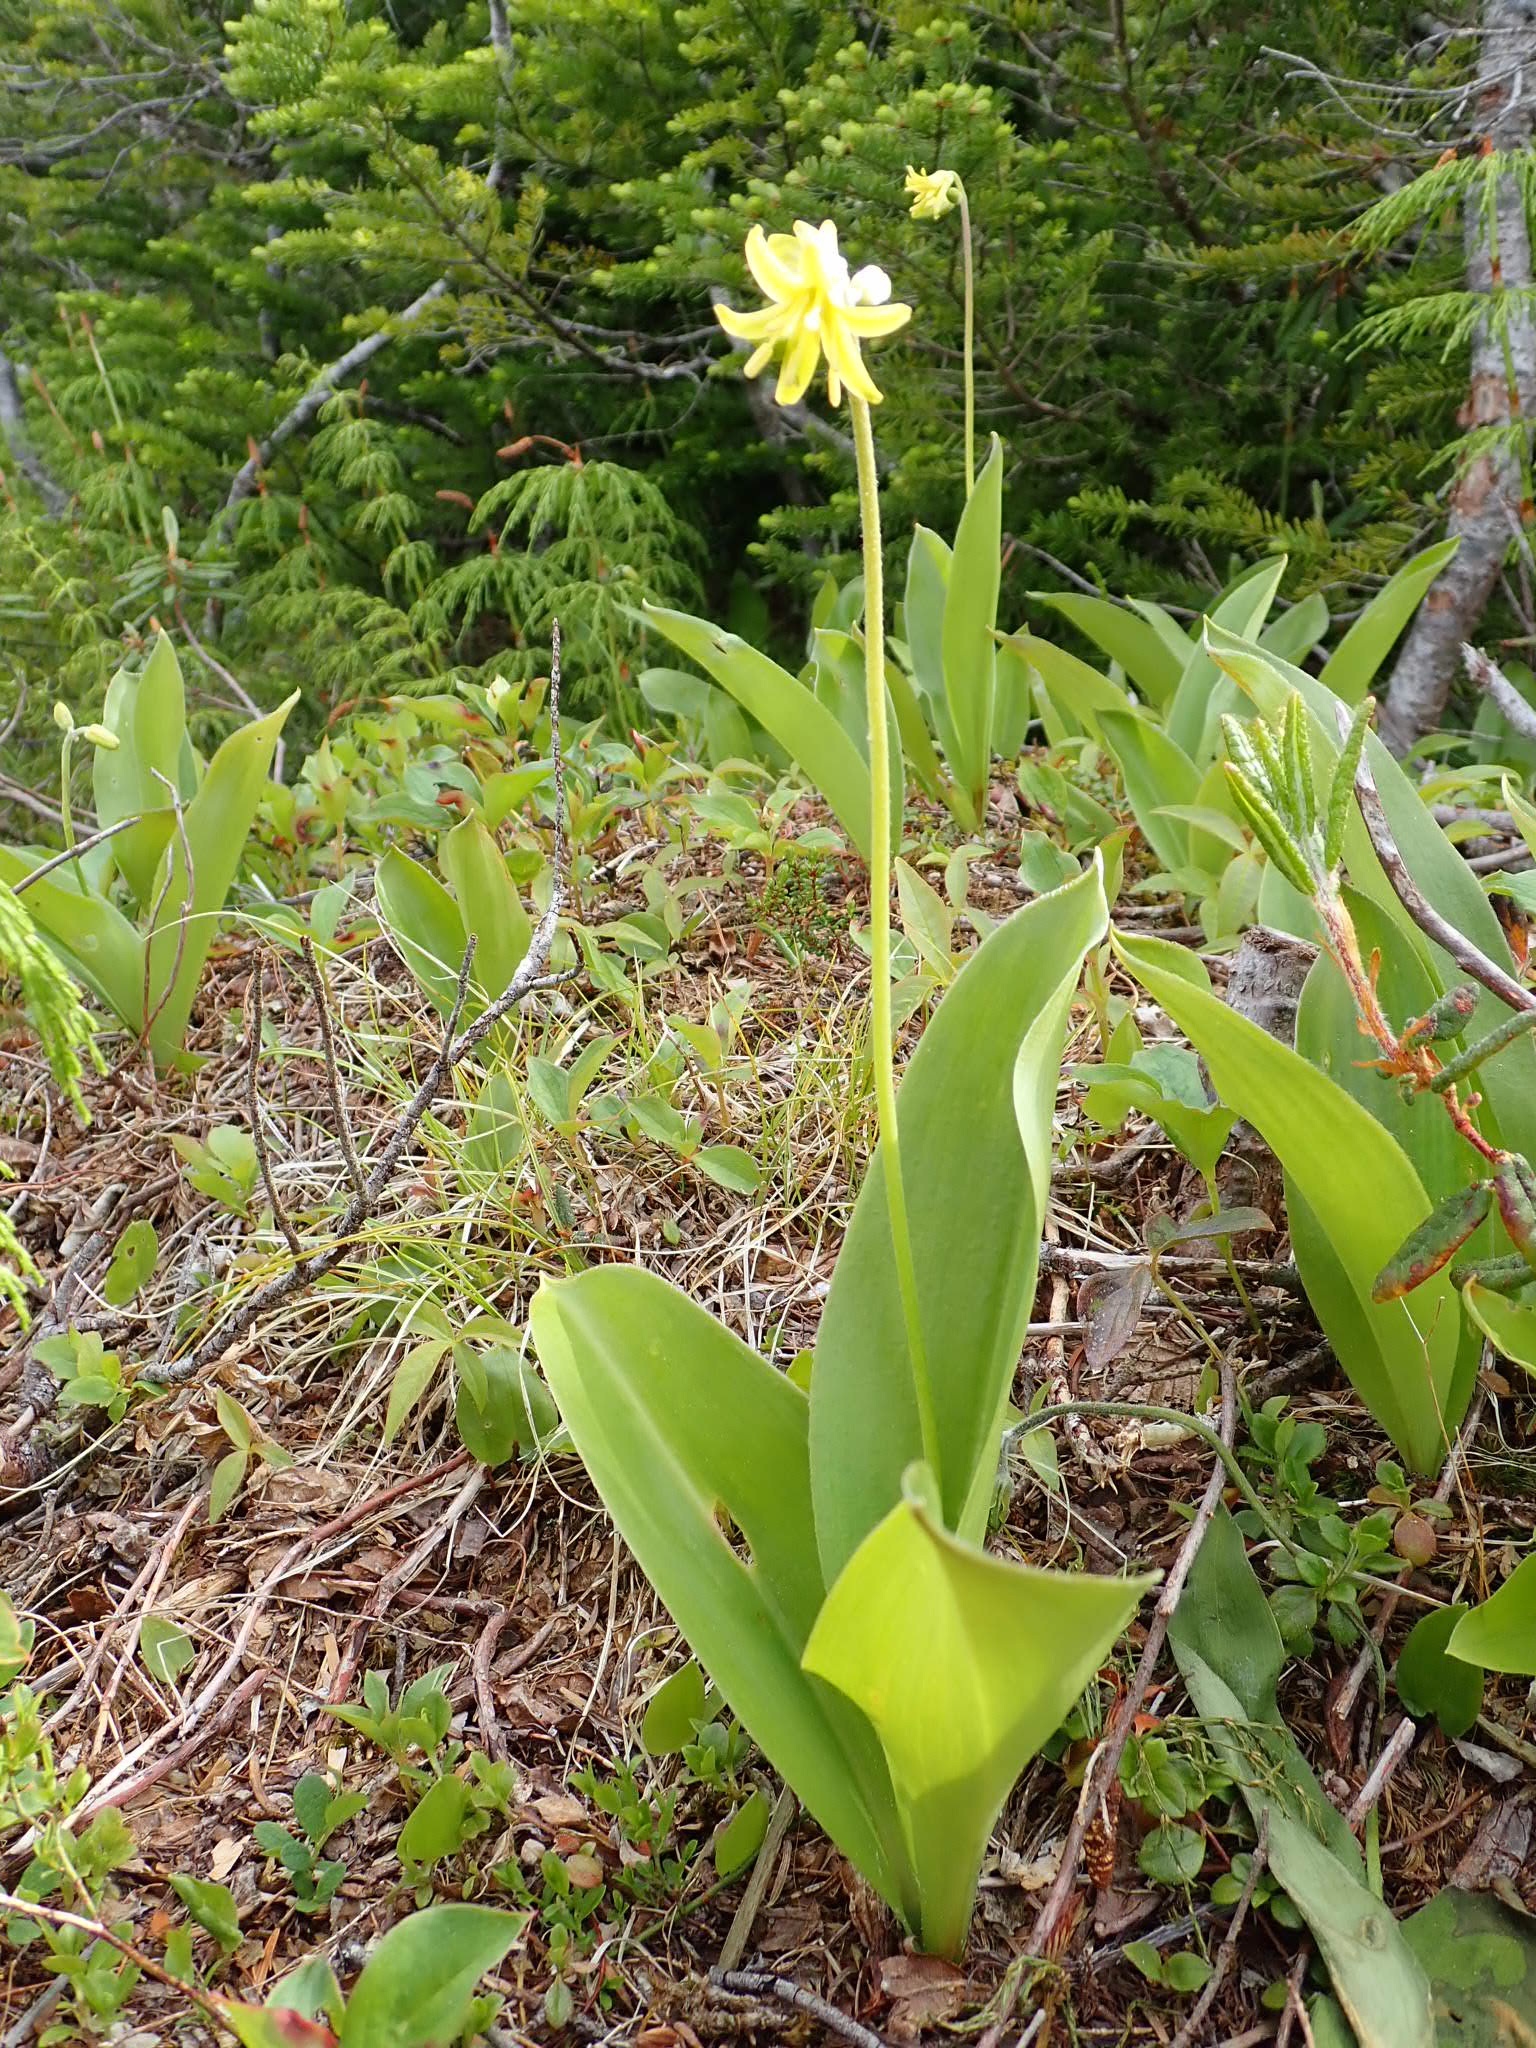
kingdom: Plantae
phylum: Tracheophyta
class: Liliopsida
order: Liliales
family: Liliaceae
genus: Clintonia
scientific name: Clintonia borealis
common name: Yellow clintonia
